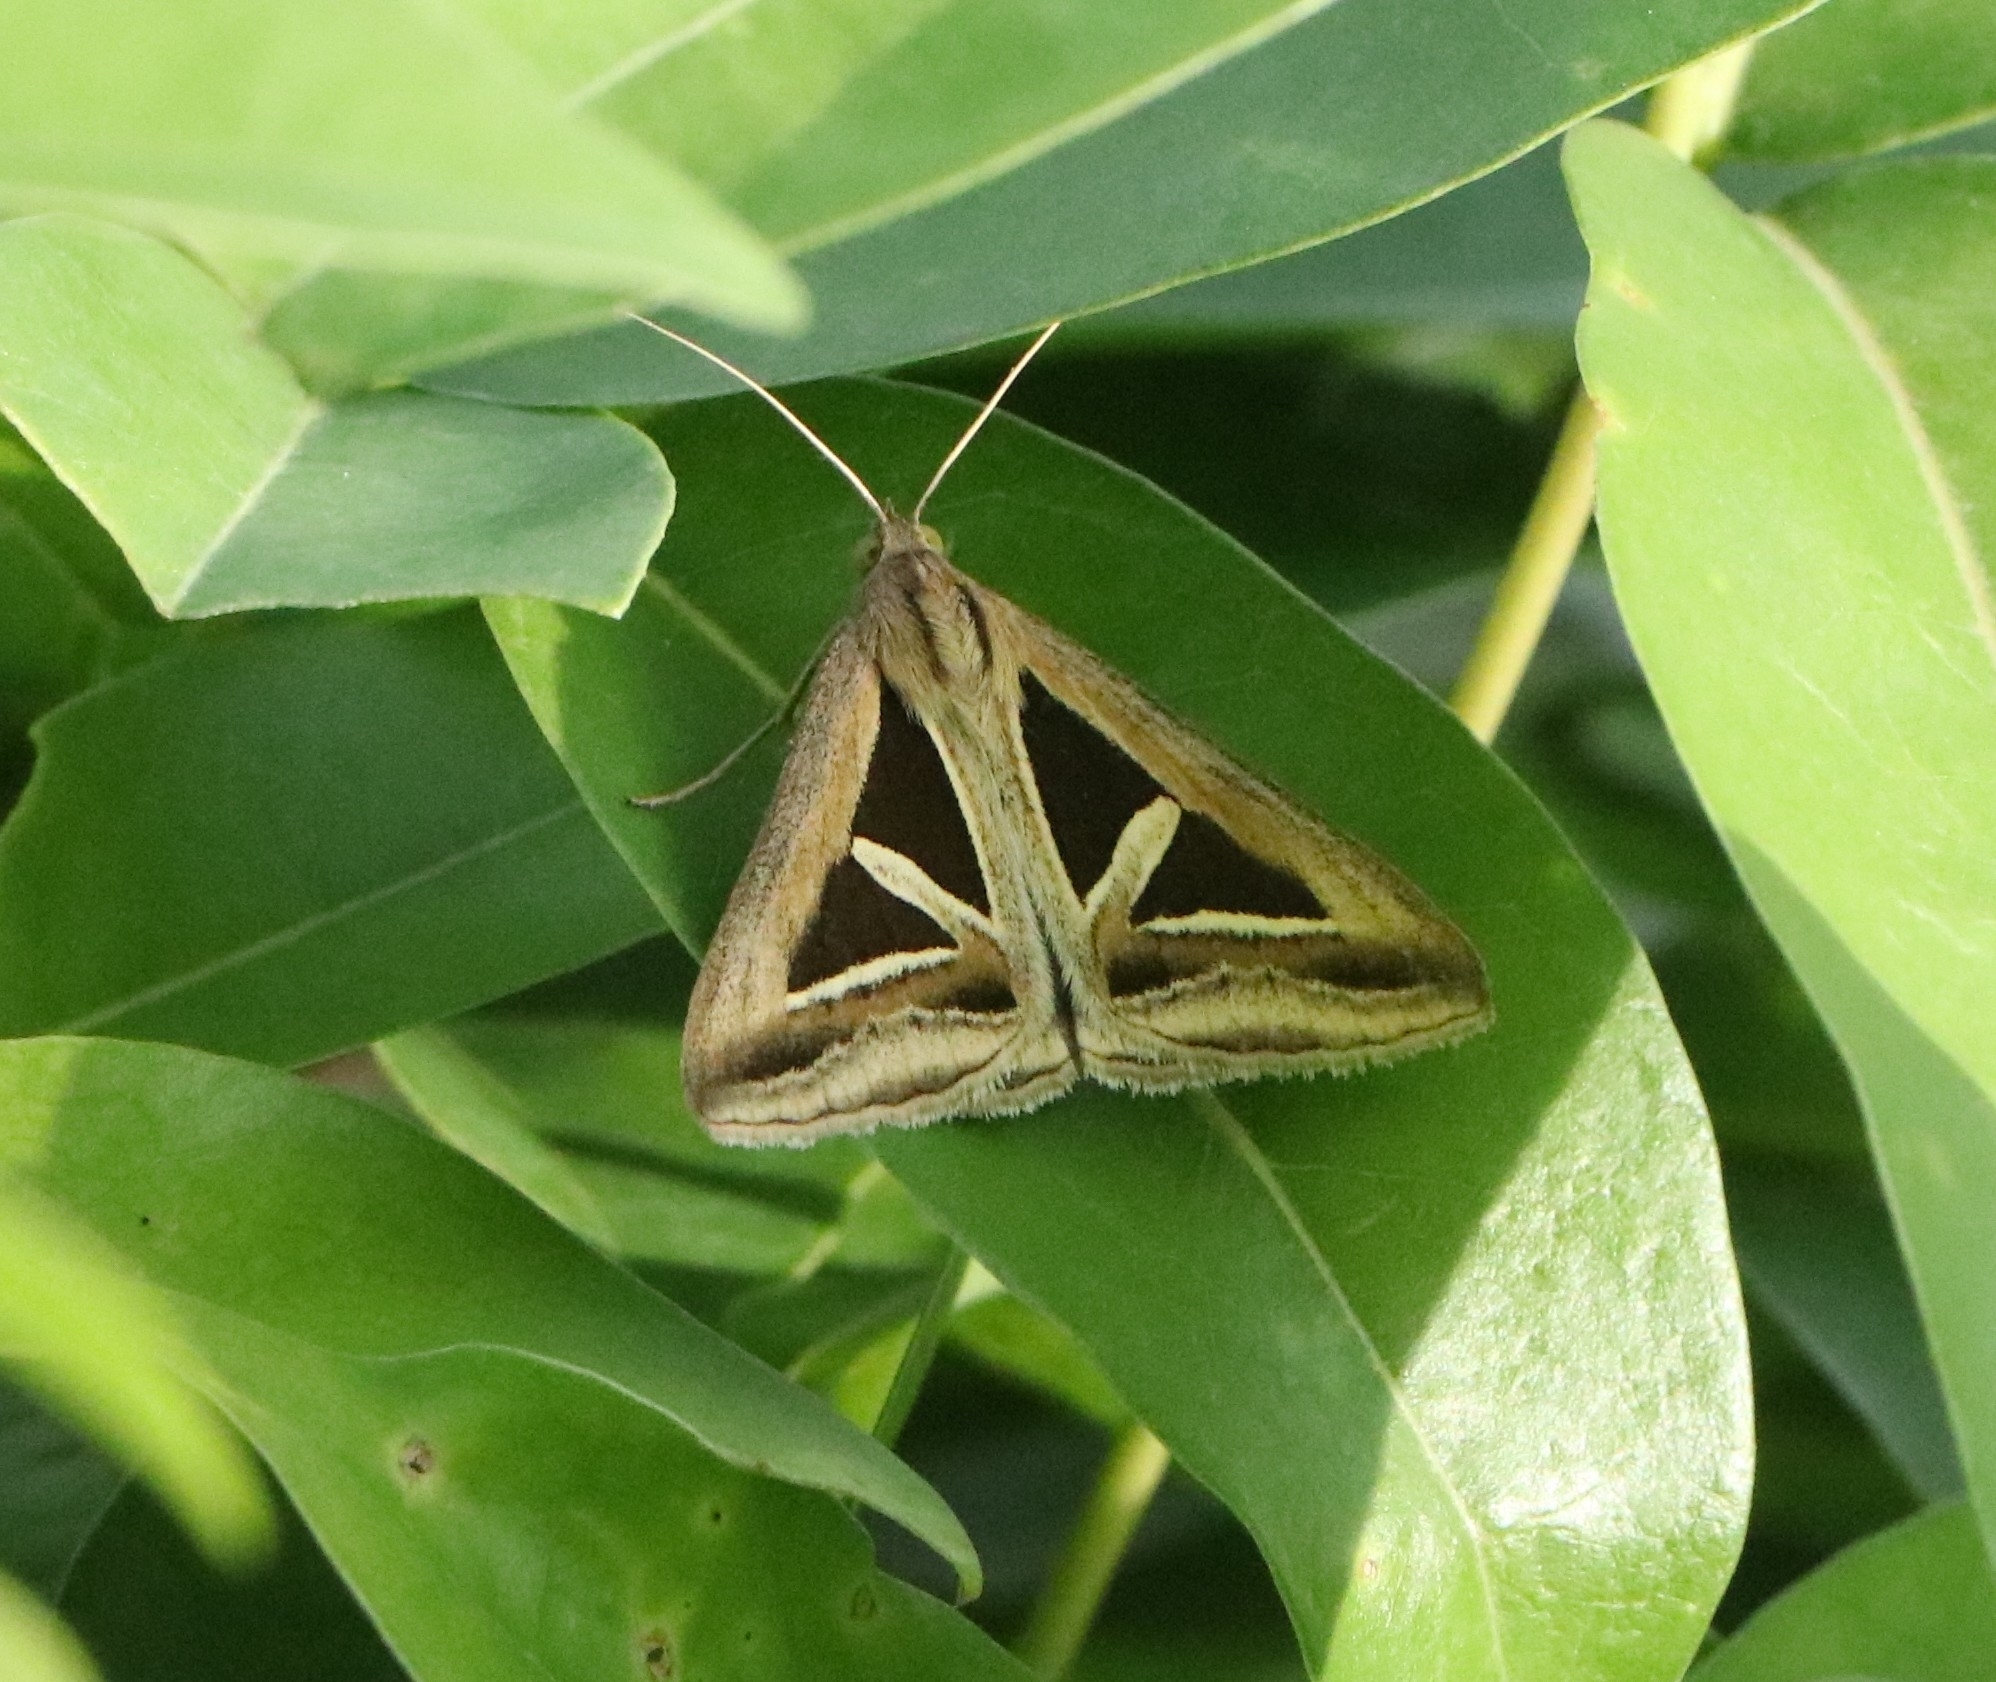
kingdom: Animalia
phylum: Arthropoda
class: Insecta
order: Lepidoptera
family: Erebidae
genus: Trigonodes
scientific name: Trigonodes hyppasia
